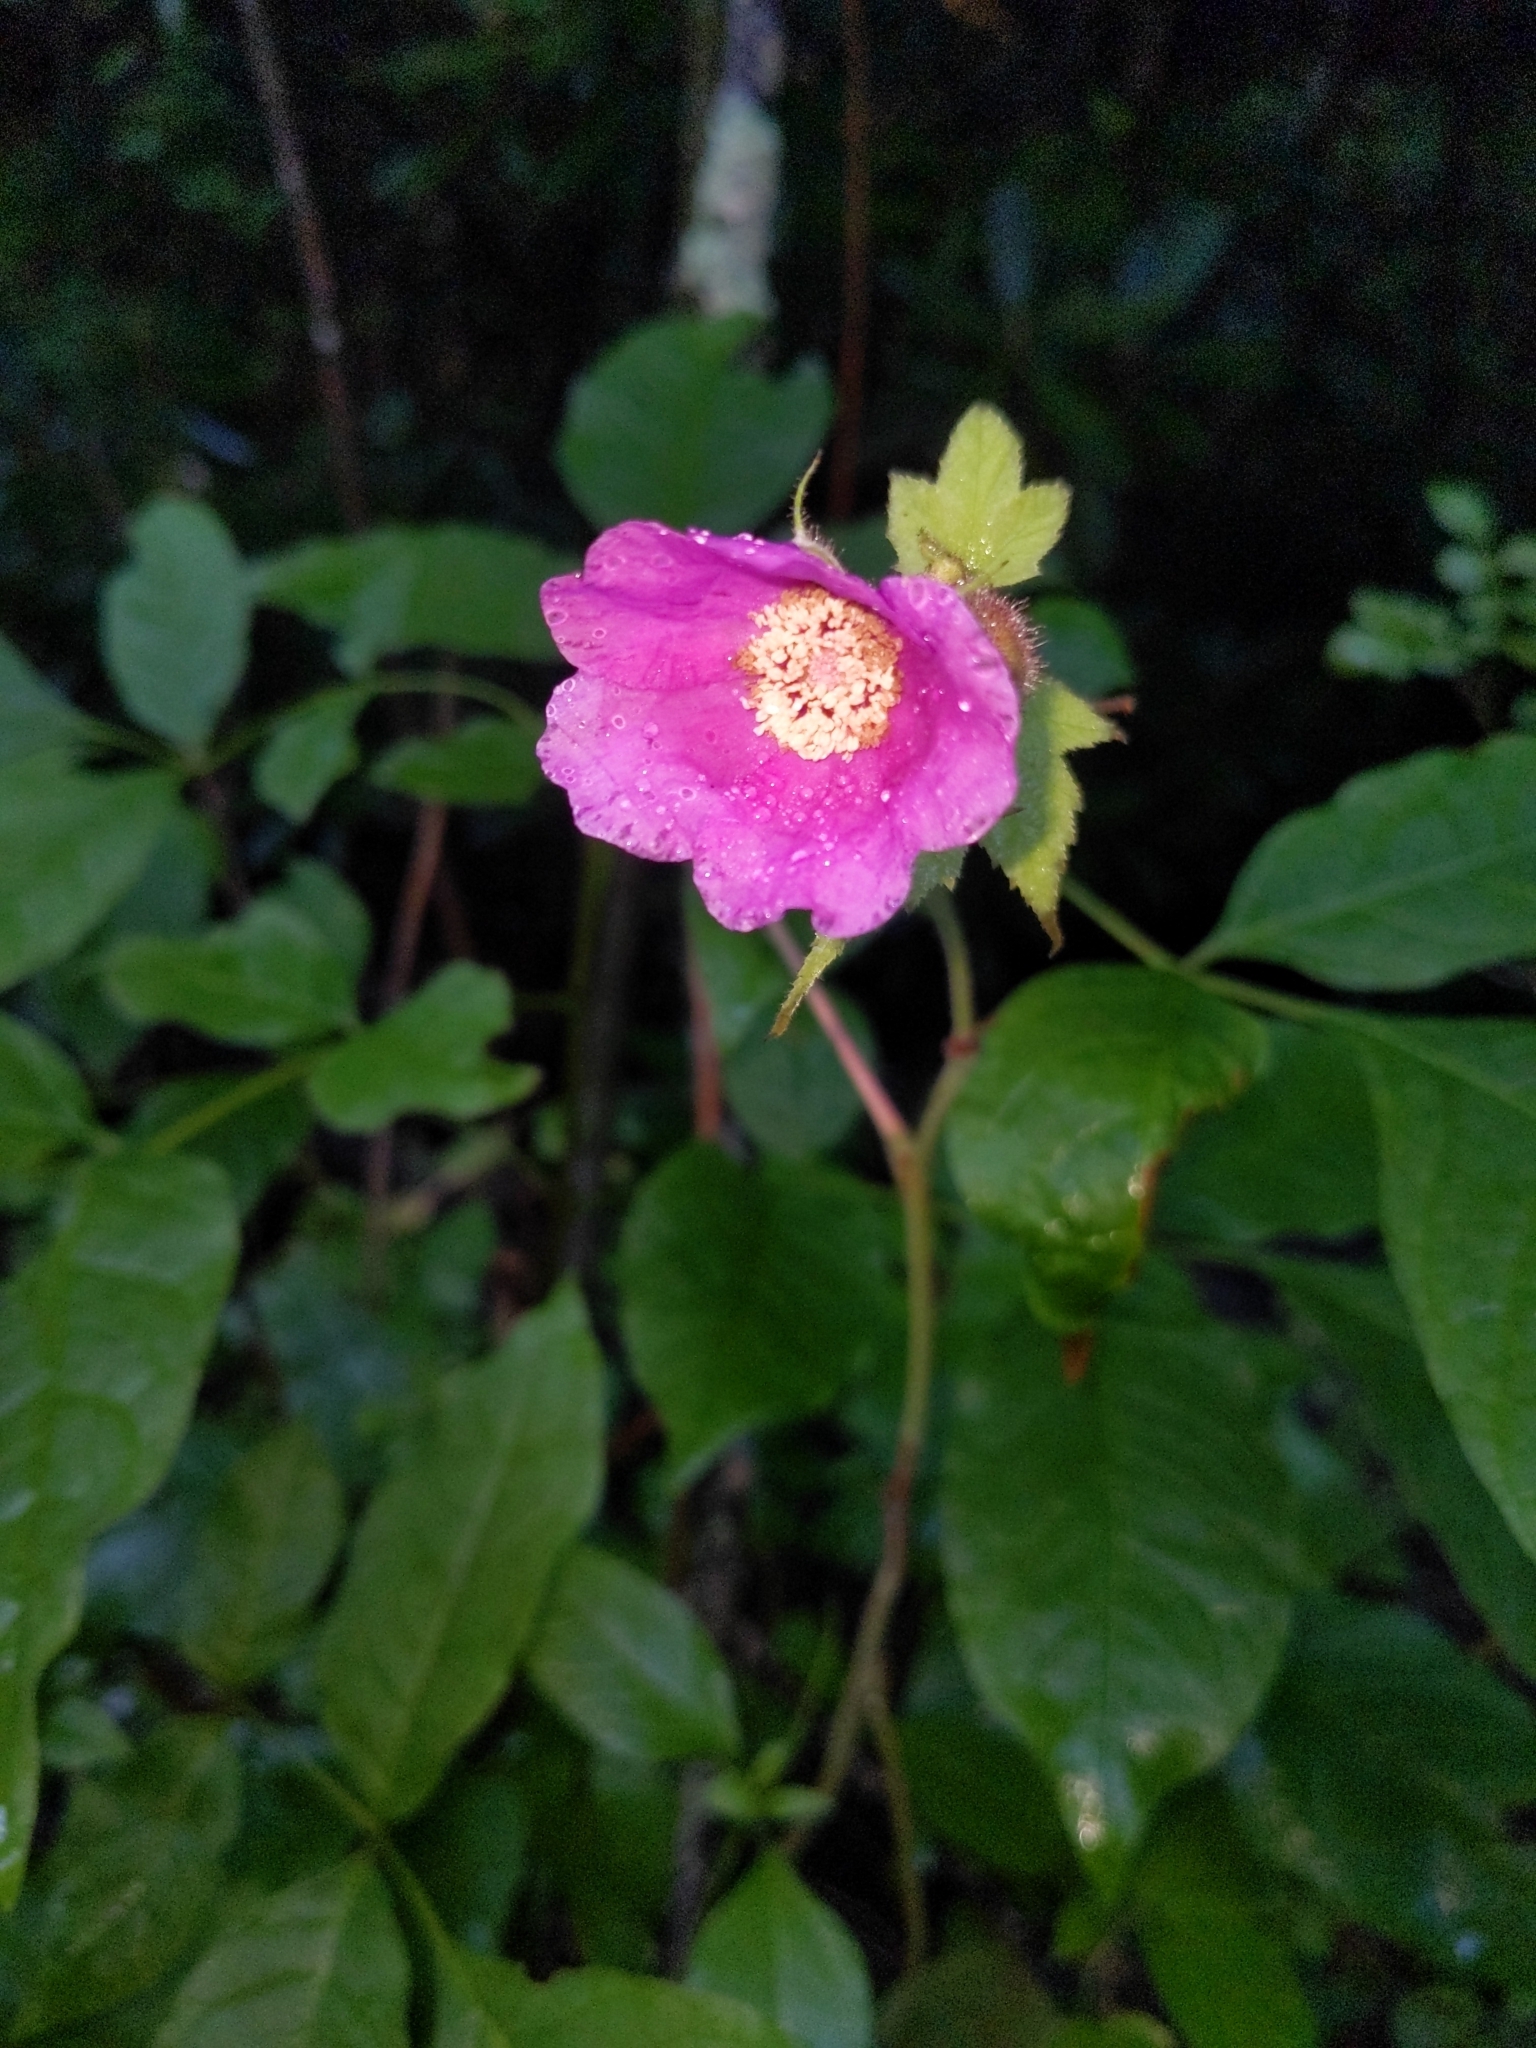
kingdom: Plantae
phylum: Tracheophyta
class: Magnoliopsida
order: Rosales
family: Rosaceae
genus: Rubus
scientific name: Rubus odoratus
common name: Purple-flowered raspberry
